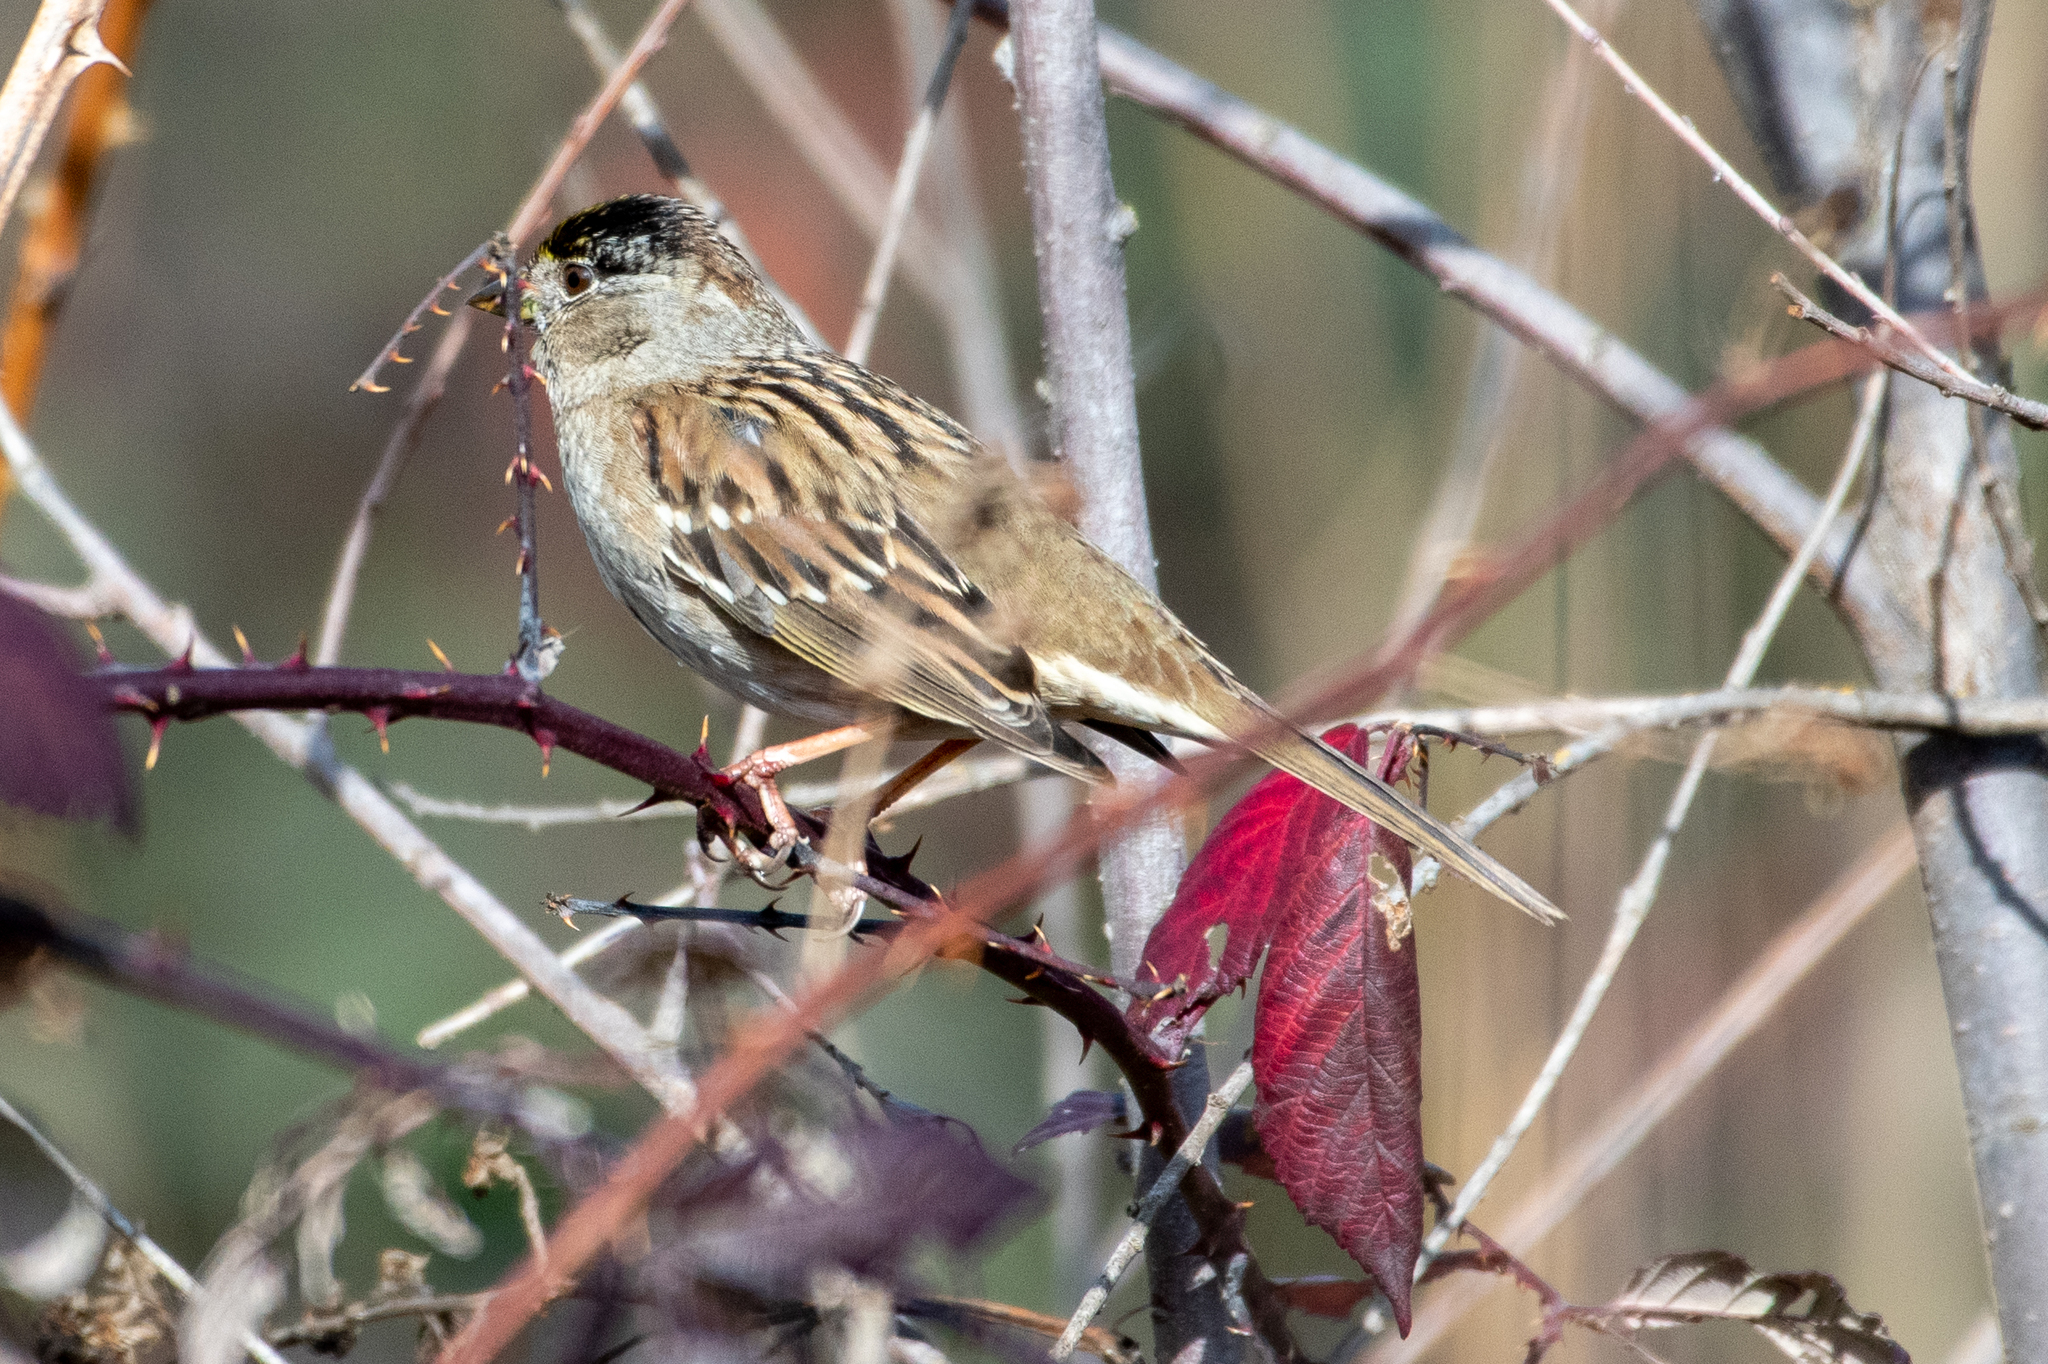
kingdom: Animalia
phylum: Chordata
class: Aves
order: Passeriformes
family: Passerellidae
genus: Zonotrichia
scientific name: Zonotrichia atricapilla
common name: Golden-crowned sparrow
